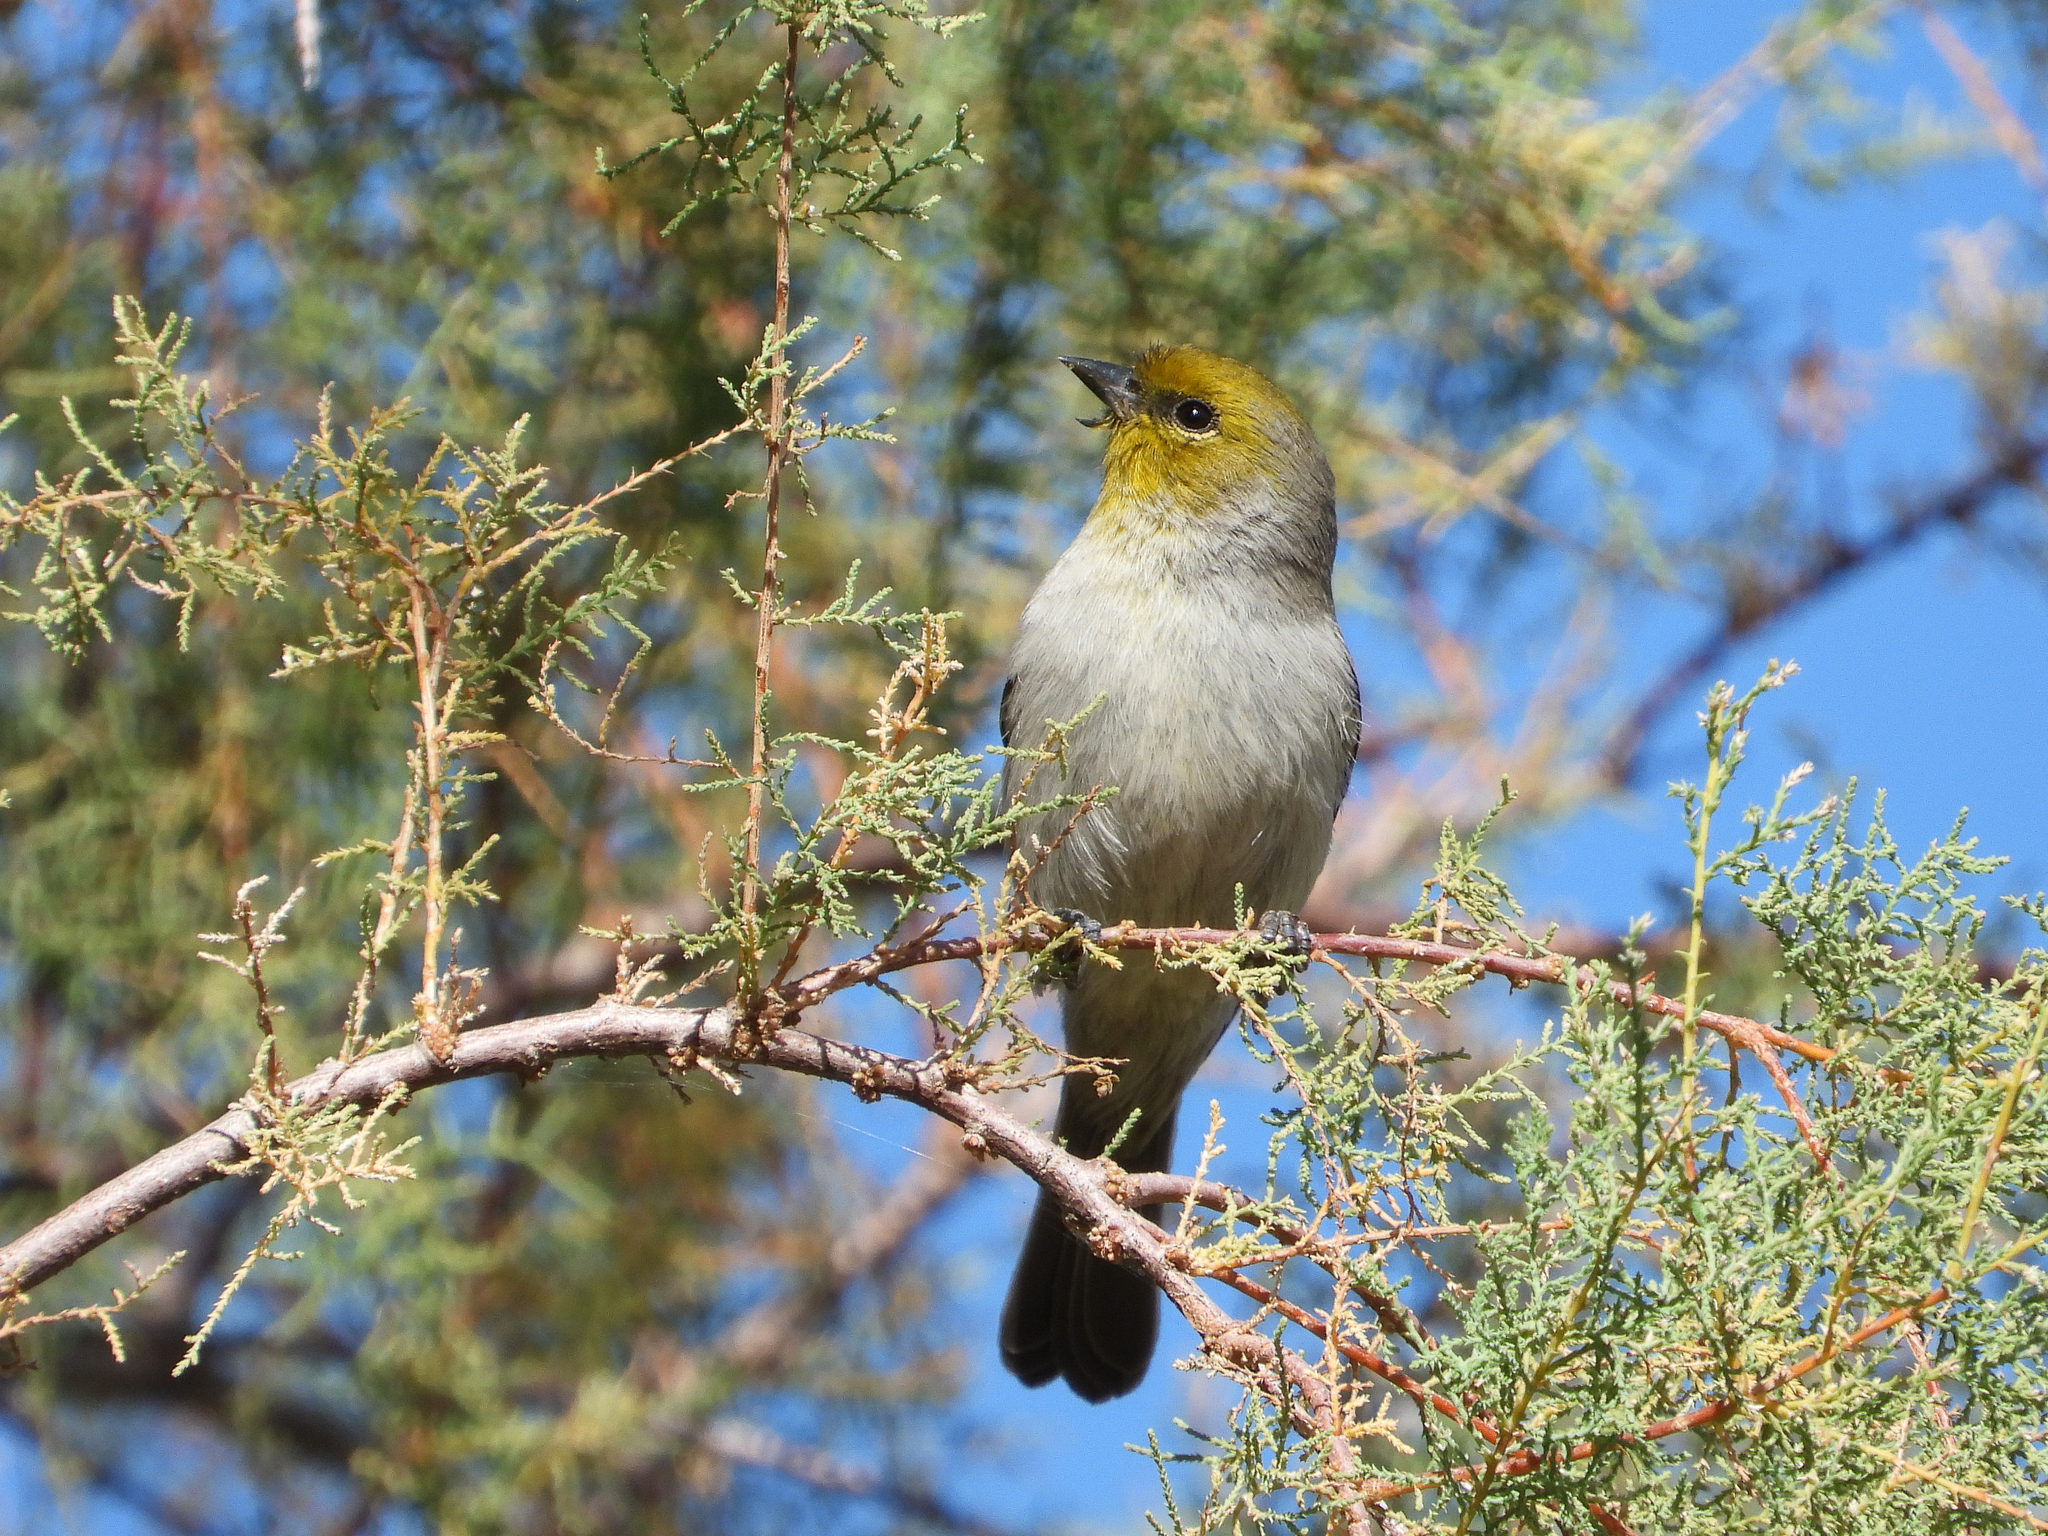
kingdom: Animalia
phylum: Chordata
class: Aves
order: Passeriformes
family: Remizidae
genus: Auriparus
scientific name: Auriparus flaviceps
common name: Verdin
